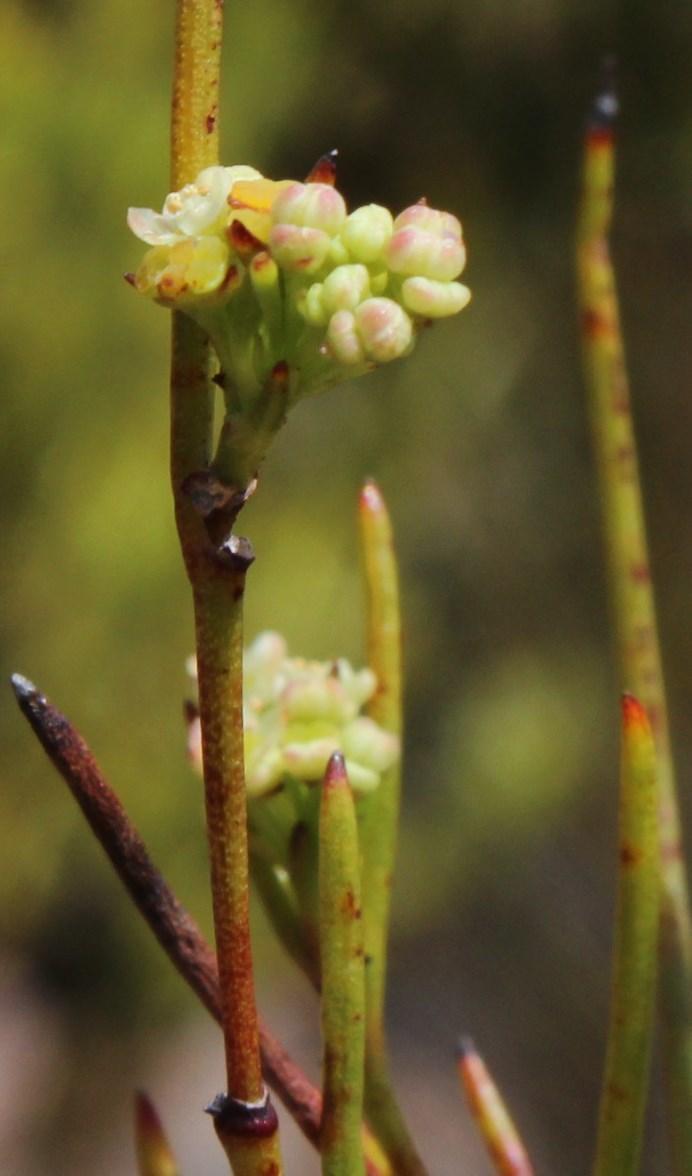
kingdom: Plantae
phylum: Tracheophyta
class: Magnoliopsida
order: Apiales
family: Apiaceae
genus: Centella
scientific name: Centella thesioides
